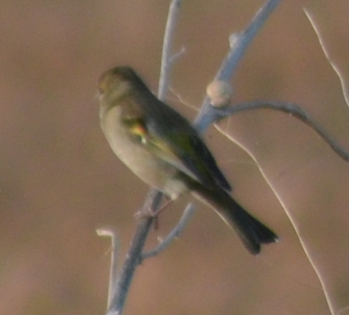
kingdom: Animalia
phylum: Chordata
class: Aves
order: Passeriformes
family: Fringillidae
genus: Fringilla
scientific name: Fringilla coelebs
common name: Common chaffinch
